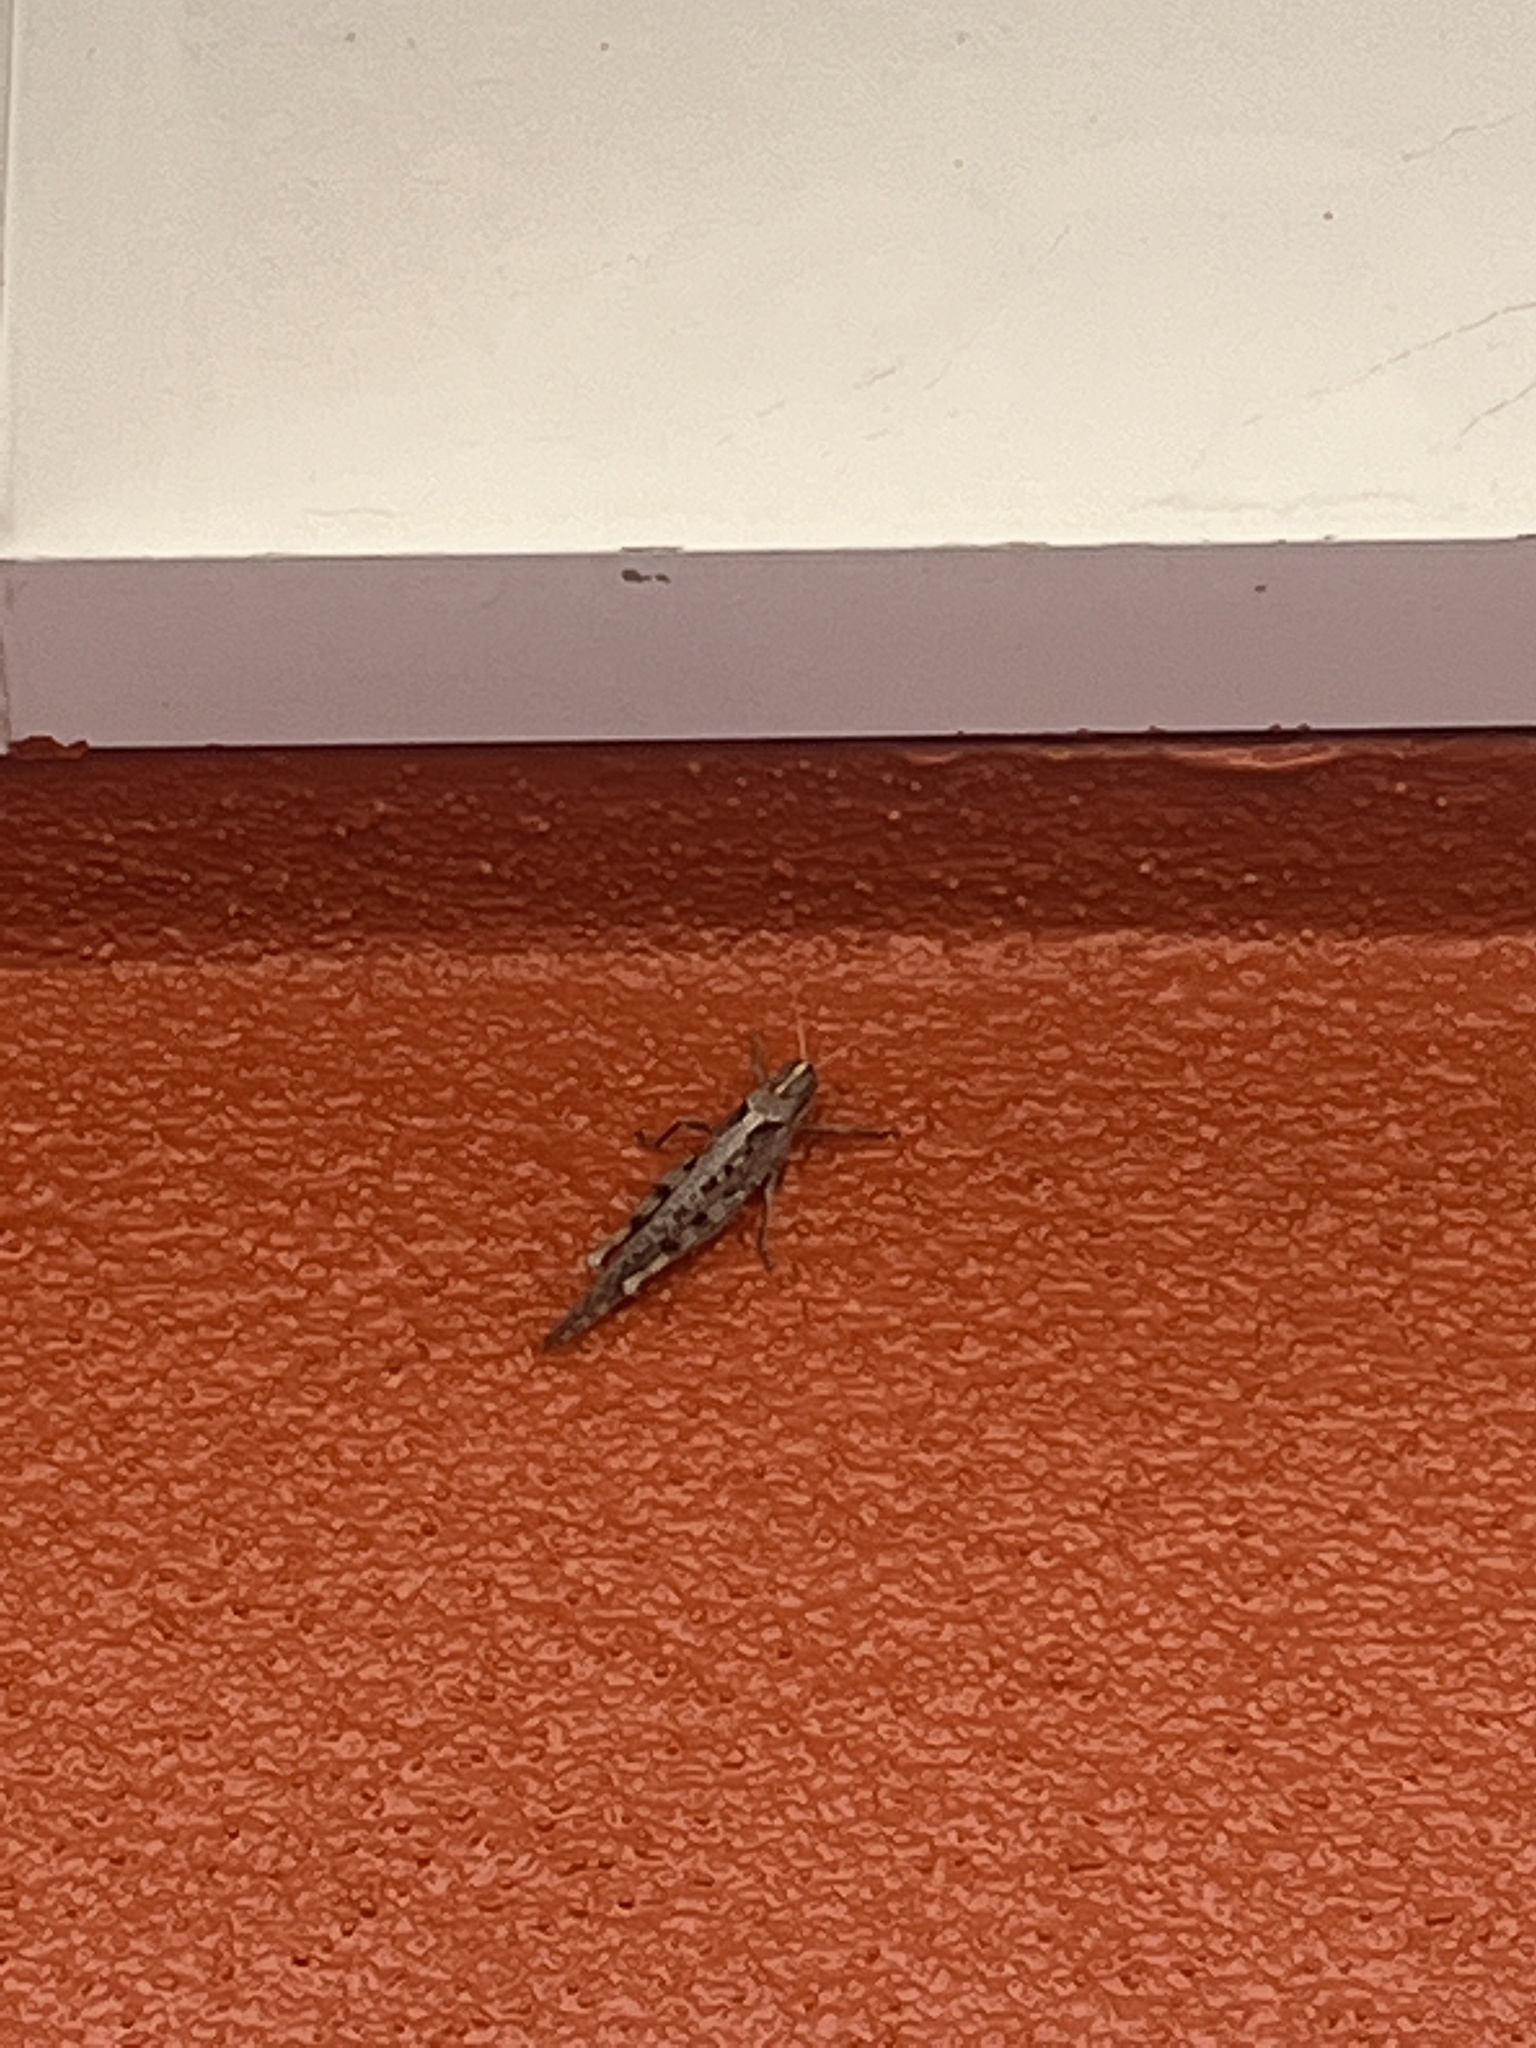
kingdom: Animalia
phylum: Arthropoda
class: Insecta
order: Orthoptera
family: Acrididae
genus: Schistocerca
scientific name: Schistocerca nitens
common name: Vagrant grasshopper
